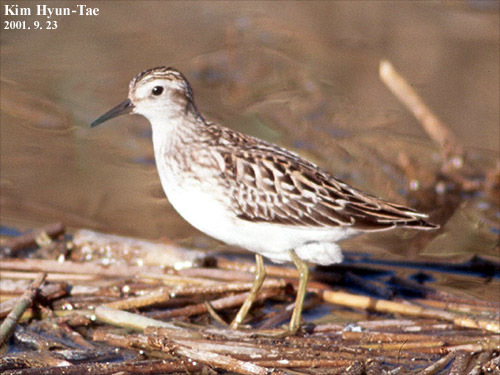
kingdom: Animalia
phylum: Chordata
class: Aves
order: Charadriiformes
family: Scolopacidae
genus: Calidris
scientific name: Calidris subminuta
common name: Long-toed stint
